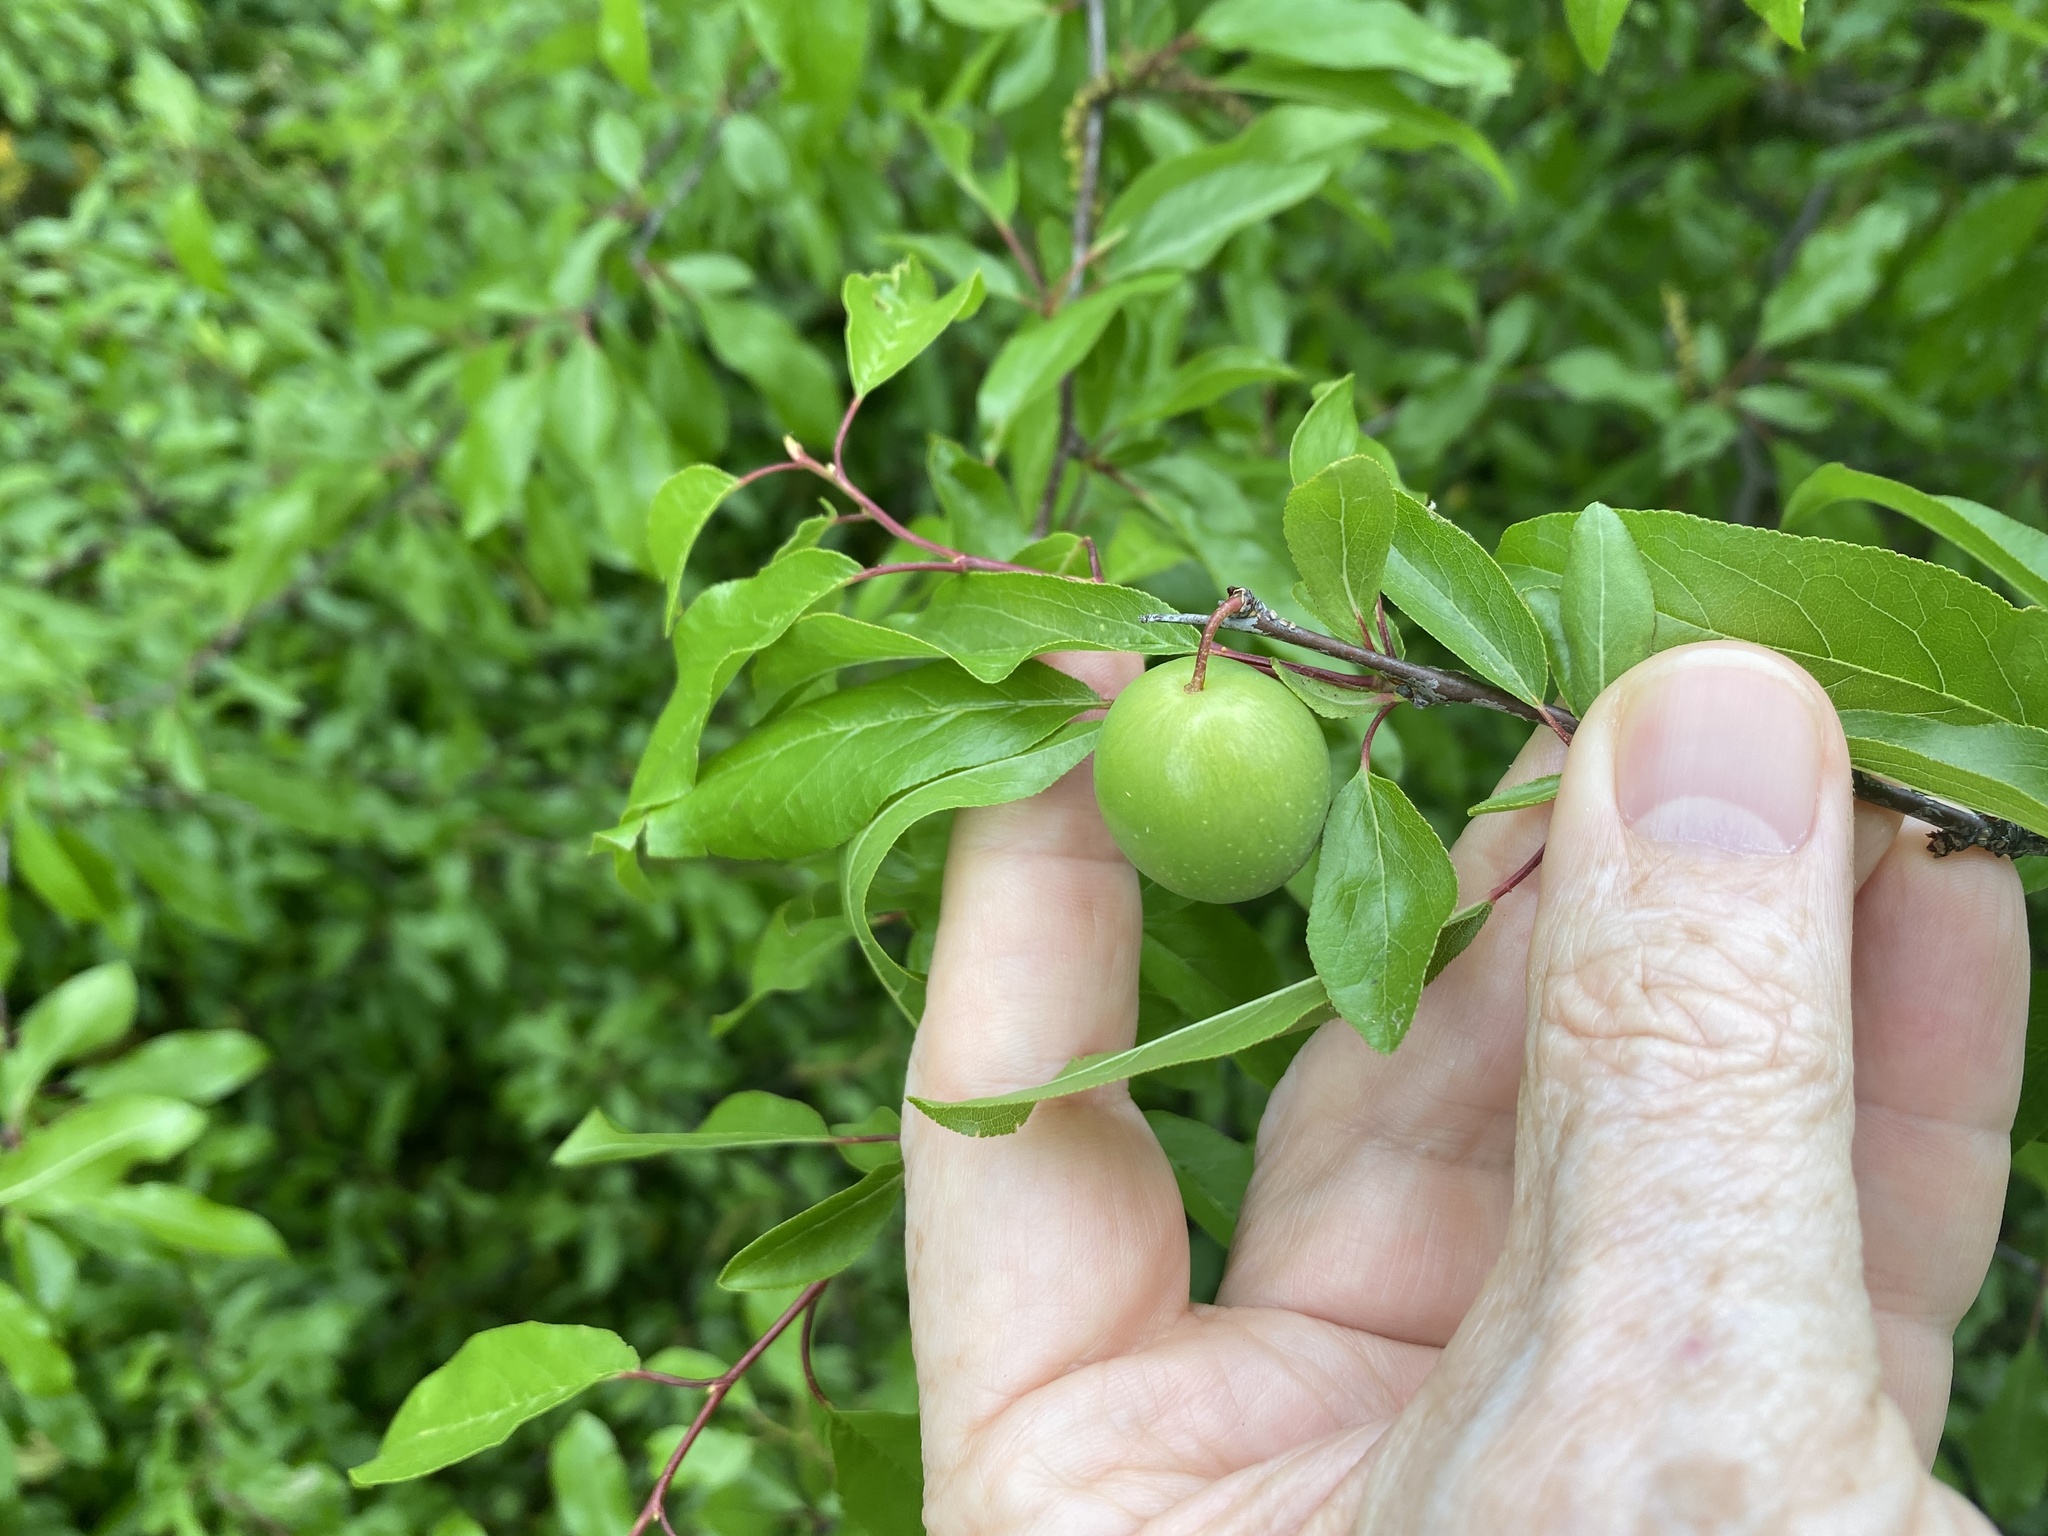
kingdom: Plantae
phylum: Tracheophyta
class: Magnoliopsida
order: Rosales
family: Rosaceae
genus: Prunus
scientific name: Prunus angustifolia
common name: Cherokee plum
